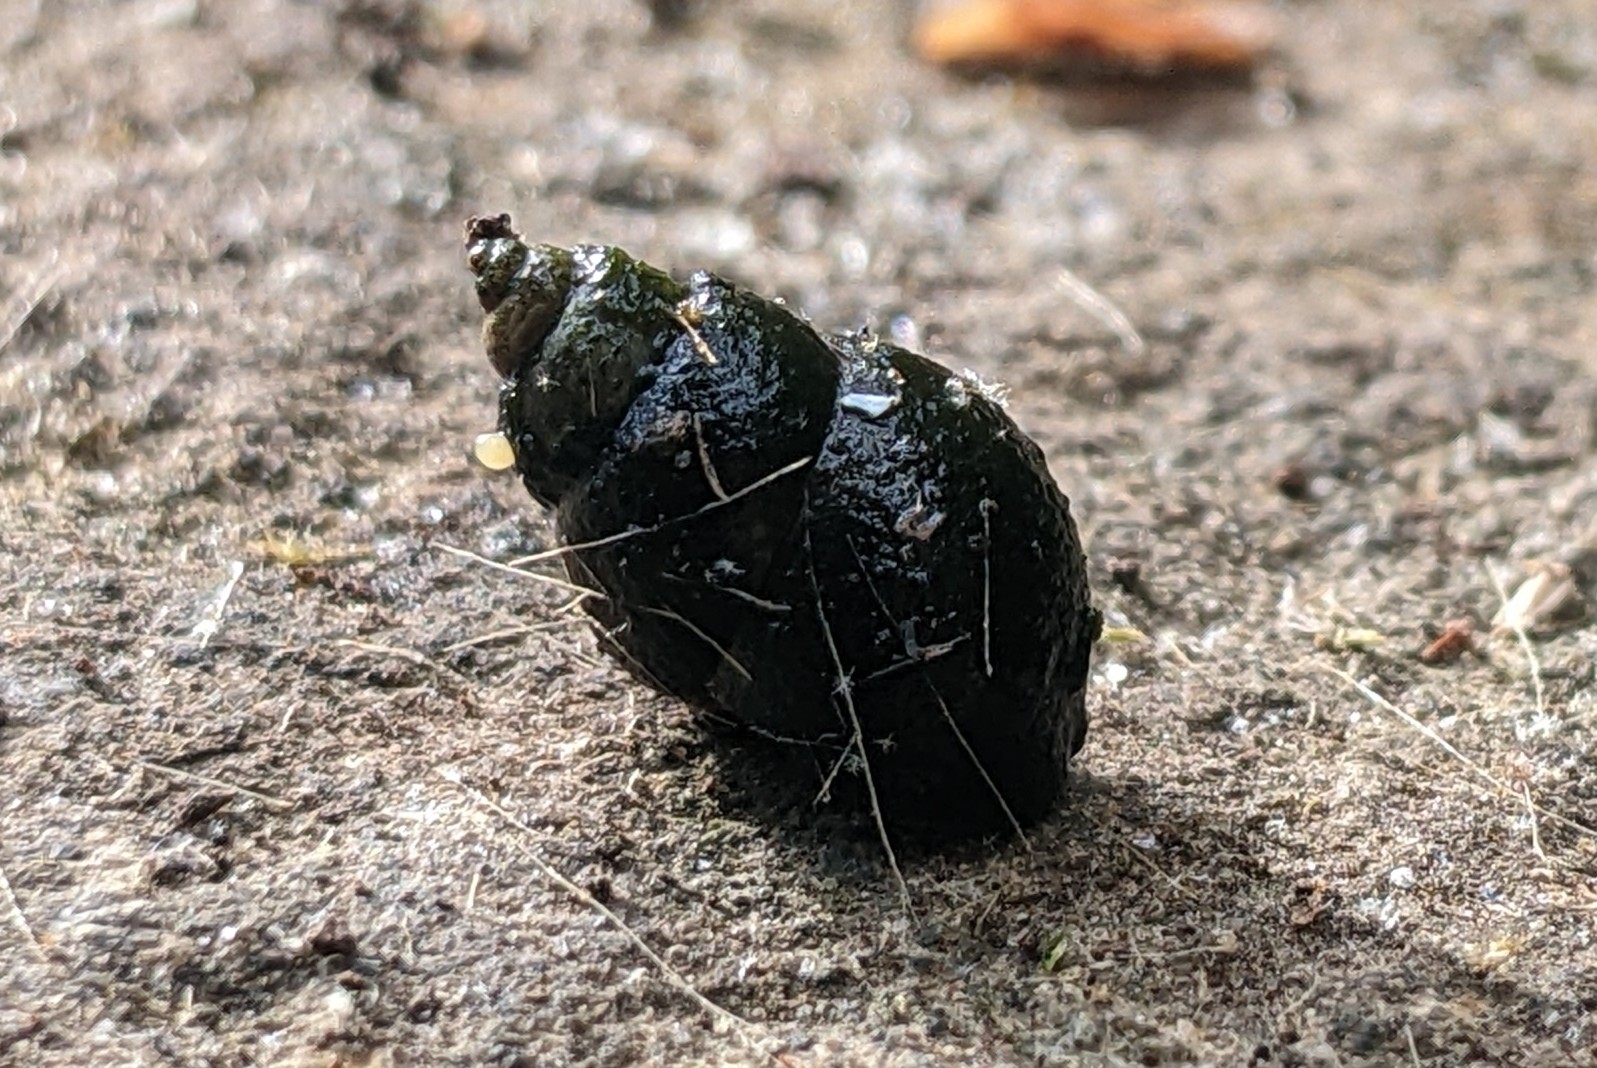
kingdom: Animalia
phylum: Mollusca
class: Gastropoda
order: Littorinimorpha
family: Bithyniidae
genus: Bithynia
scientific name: Bithynia tentaculata
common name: Common bithynia
